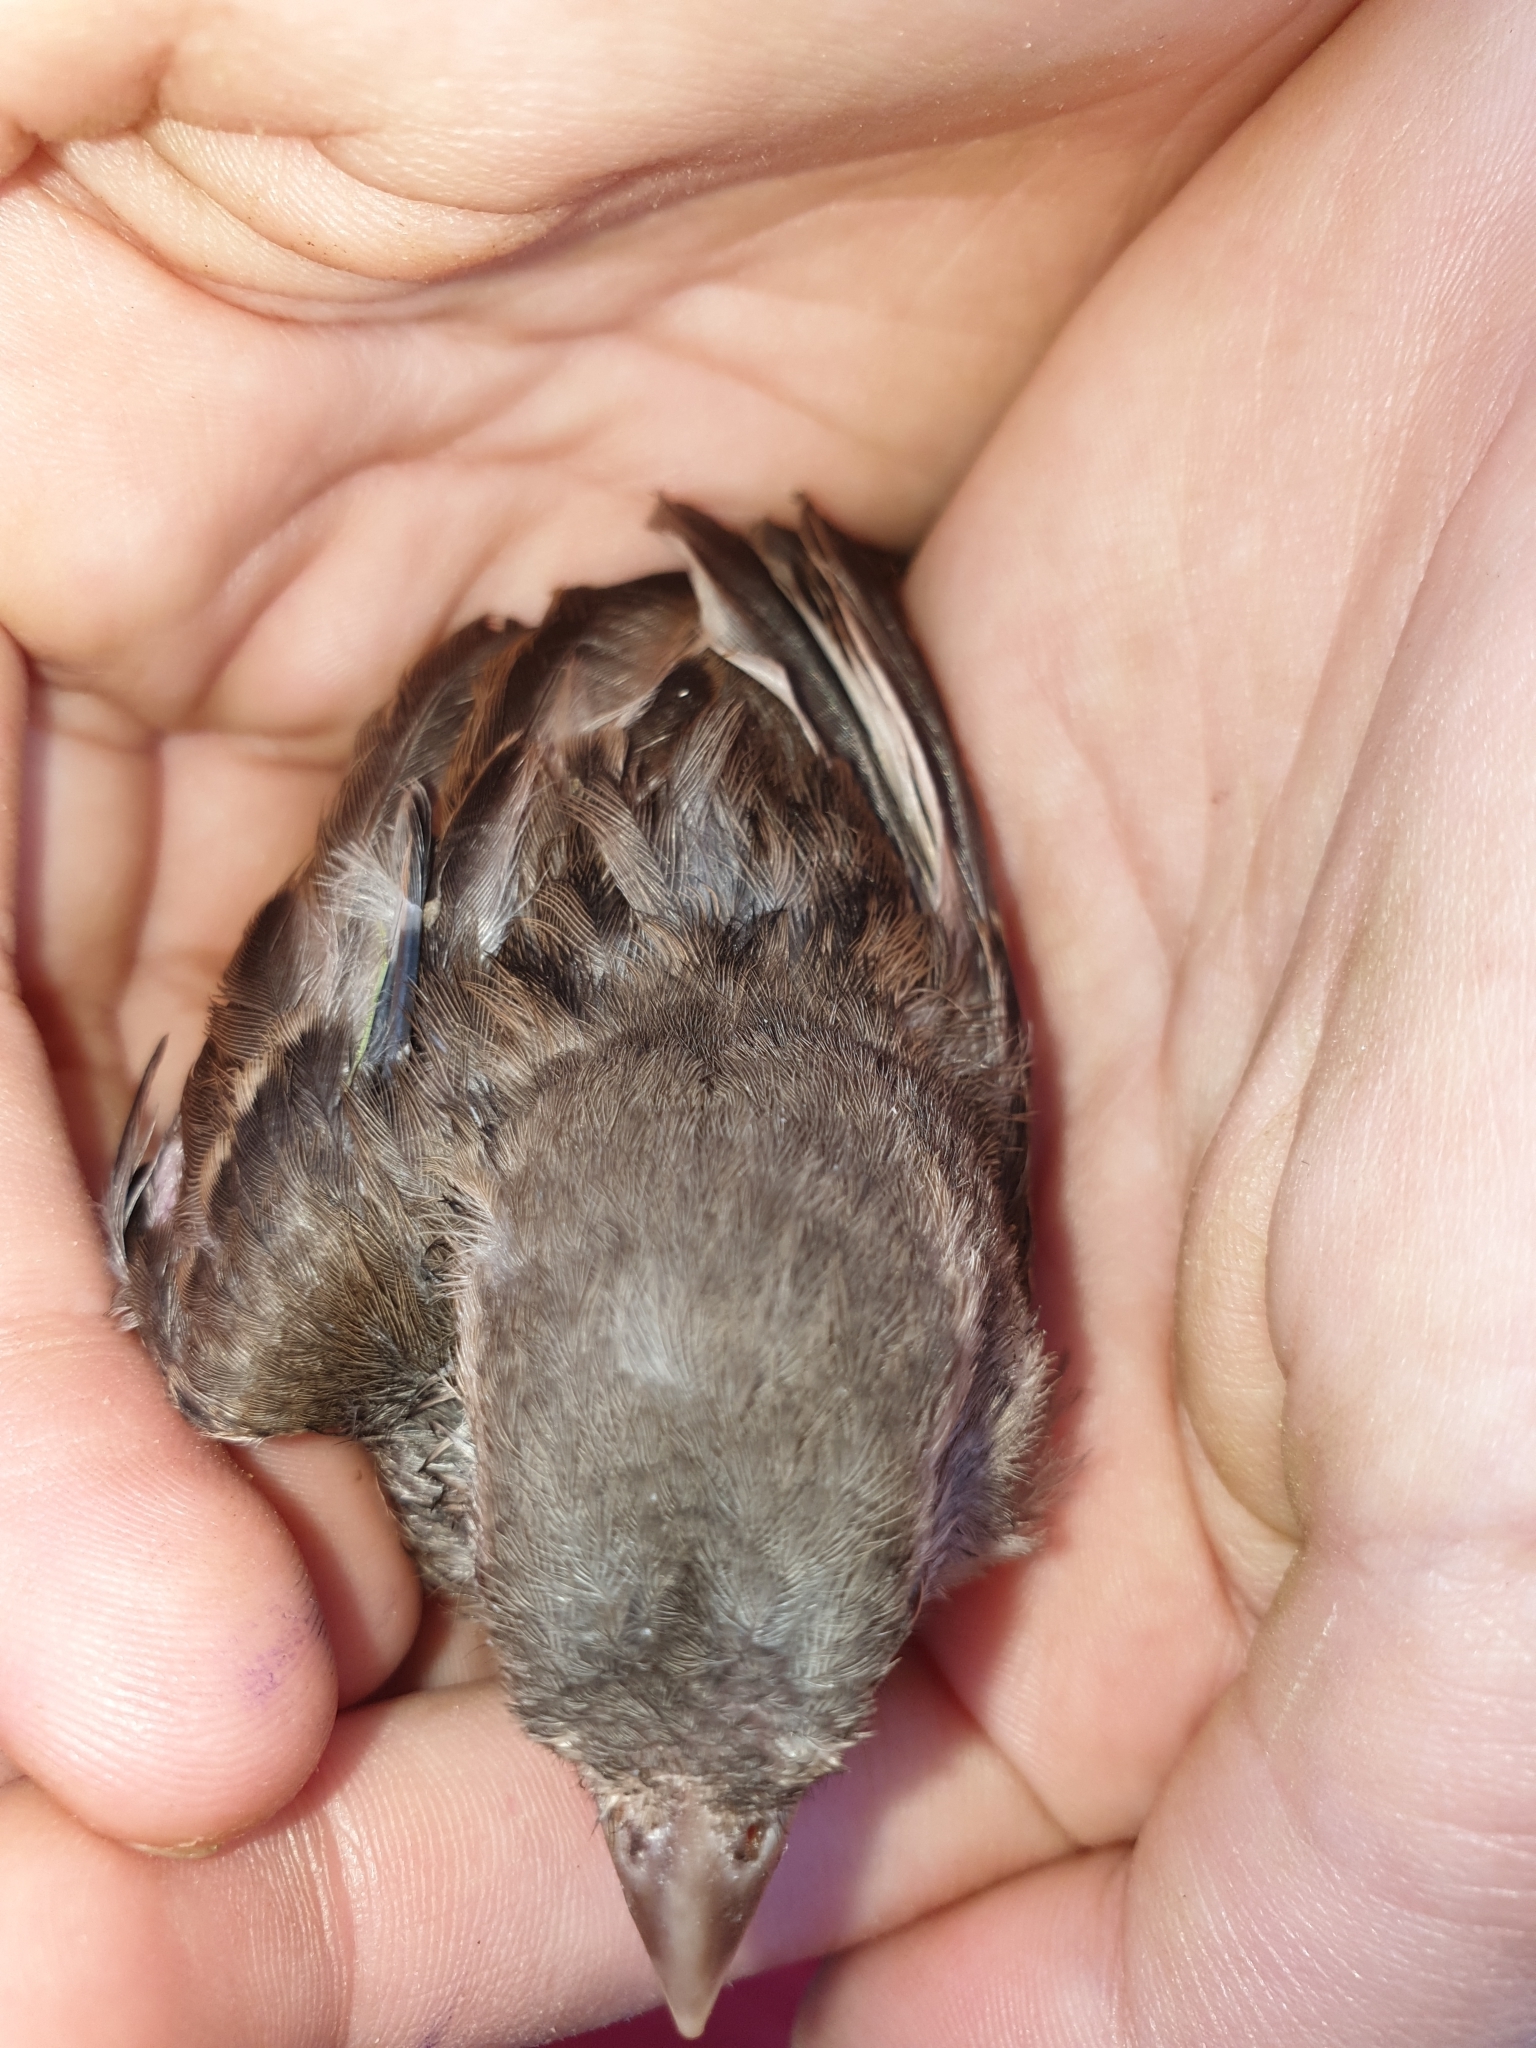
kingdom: Animalia
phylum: Chordata
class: Aves
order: Passeriformes
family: Passeridae
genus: Passer
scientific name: Passer domesticus
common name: House sparrow
